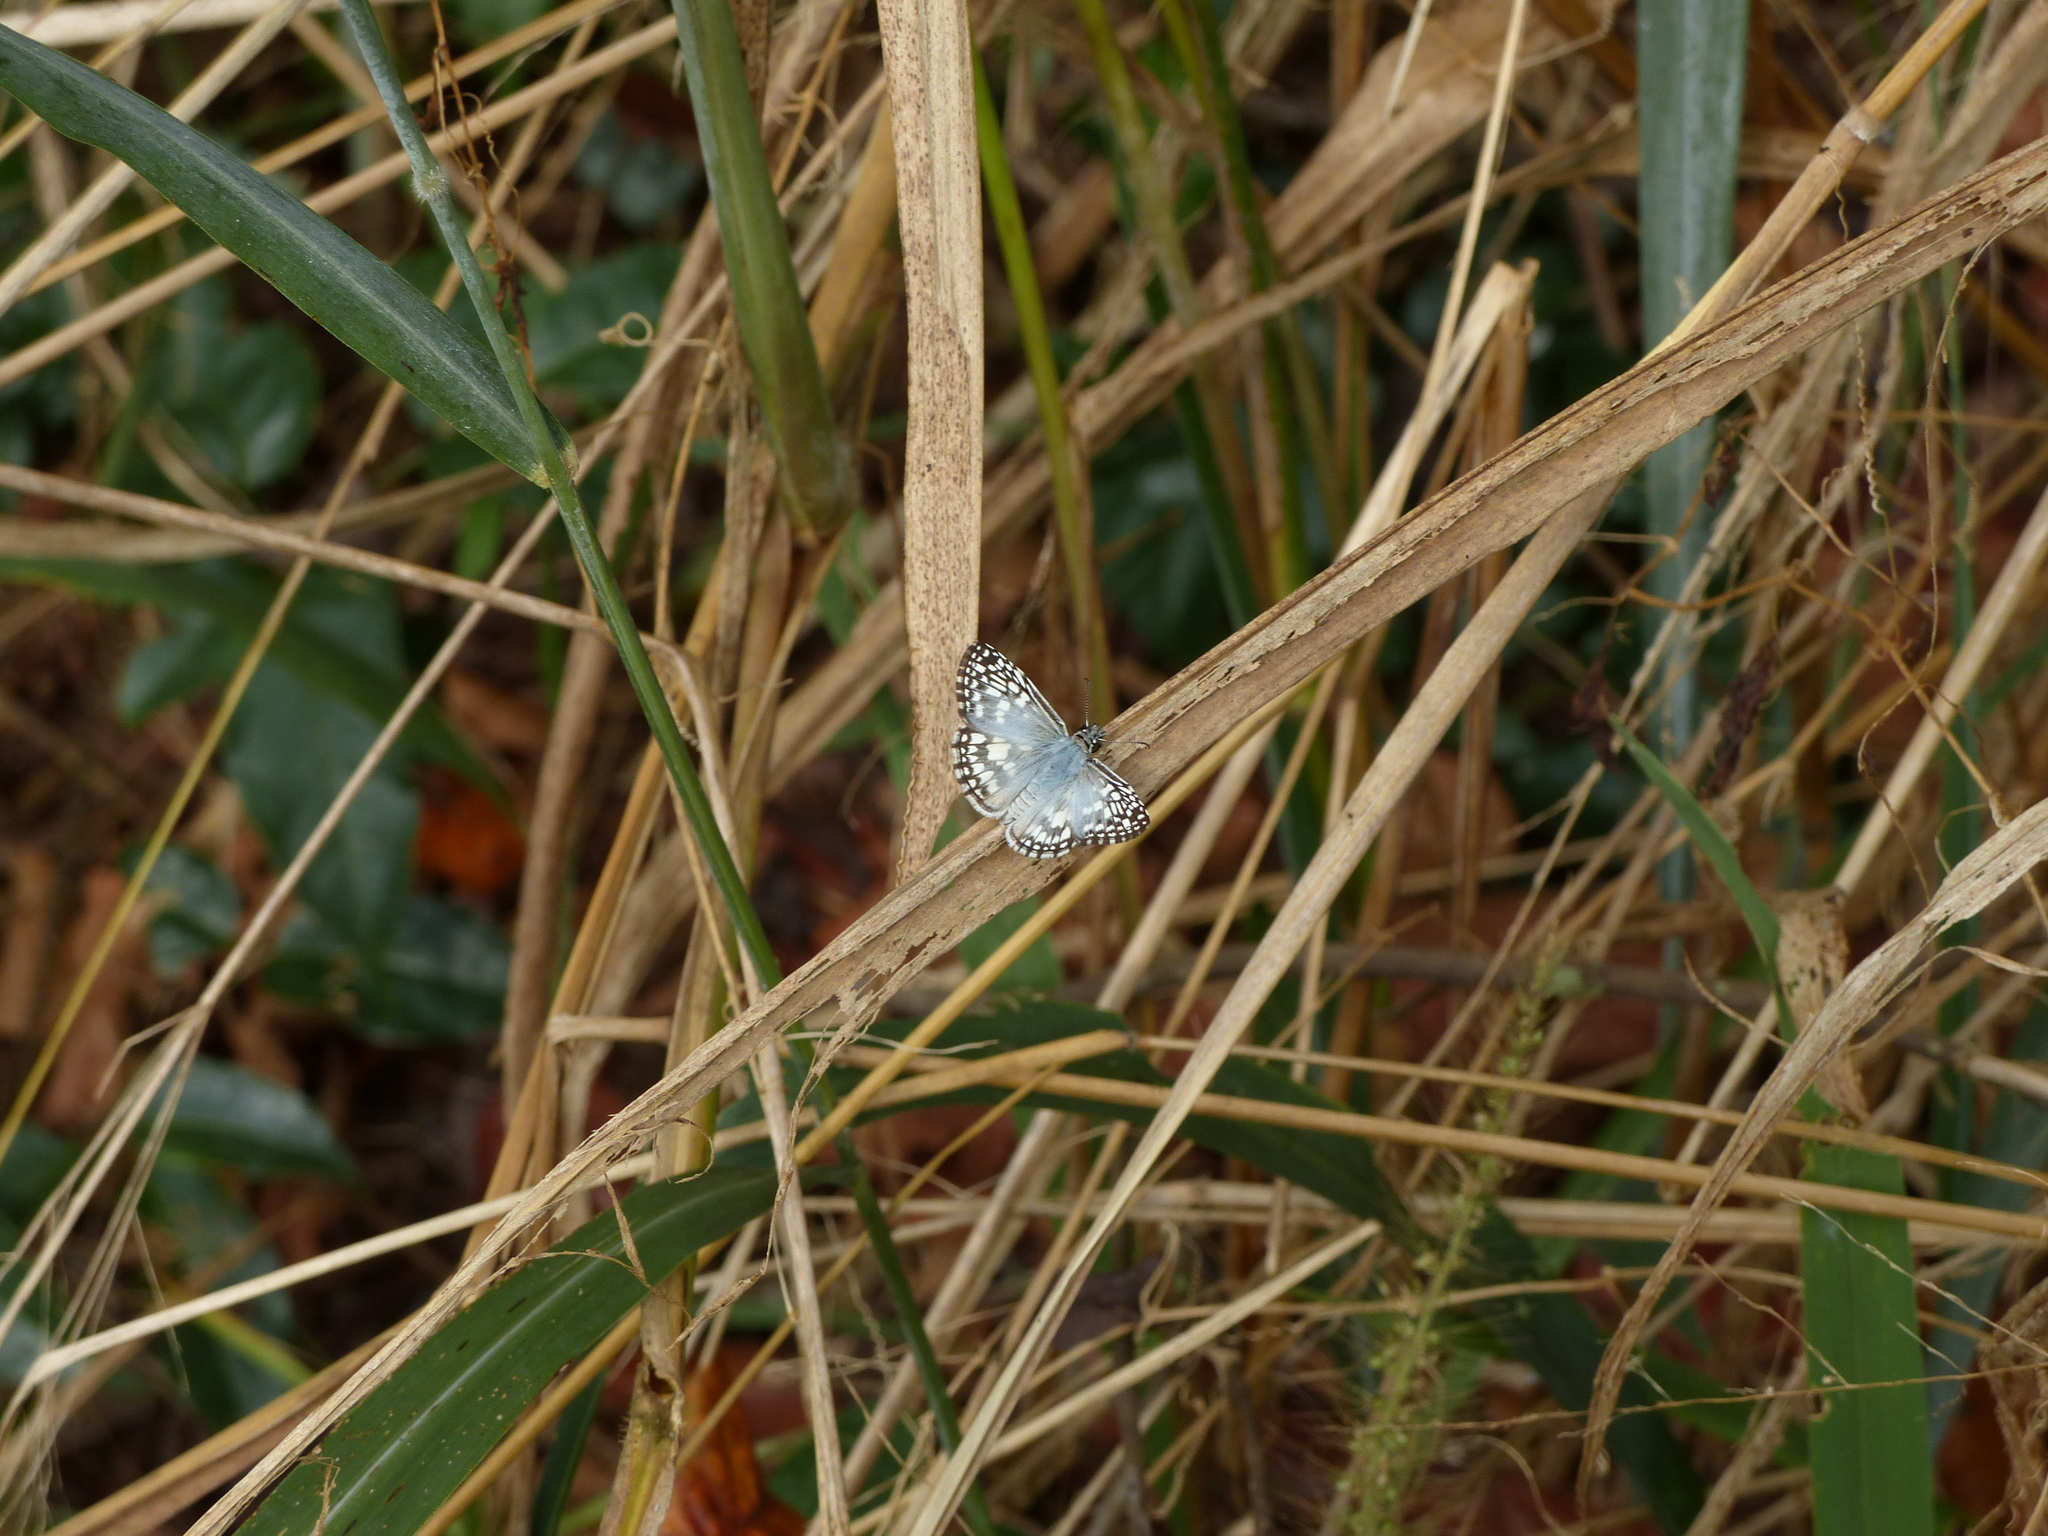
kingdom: Animalia
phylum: Arthropoda
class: Insecta
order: Lepidoptera
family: Hesperiidae
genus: Pyrgus
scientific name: Pyrgus oileus
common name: Tropical checkered-skipper
